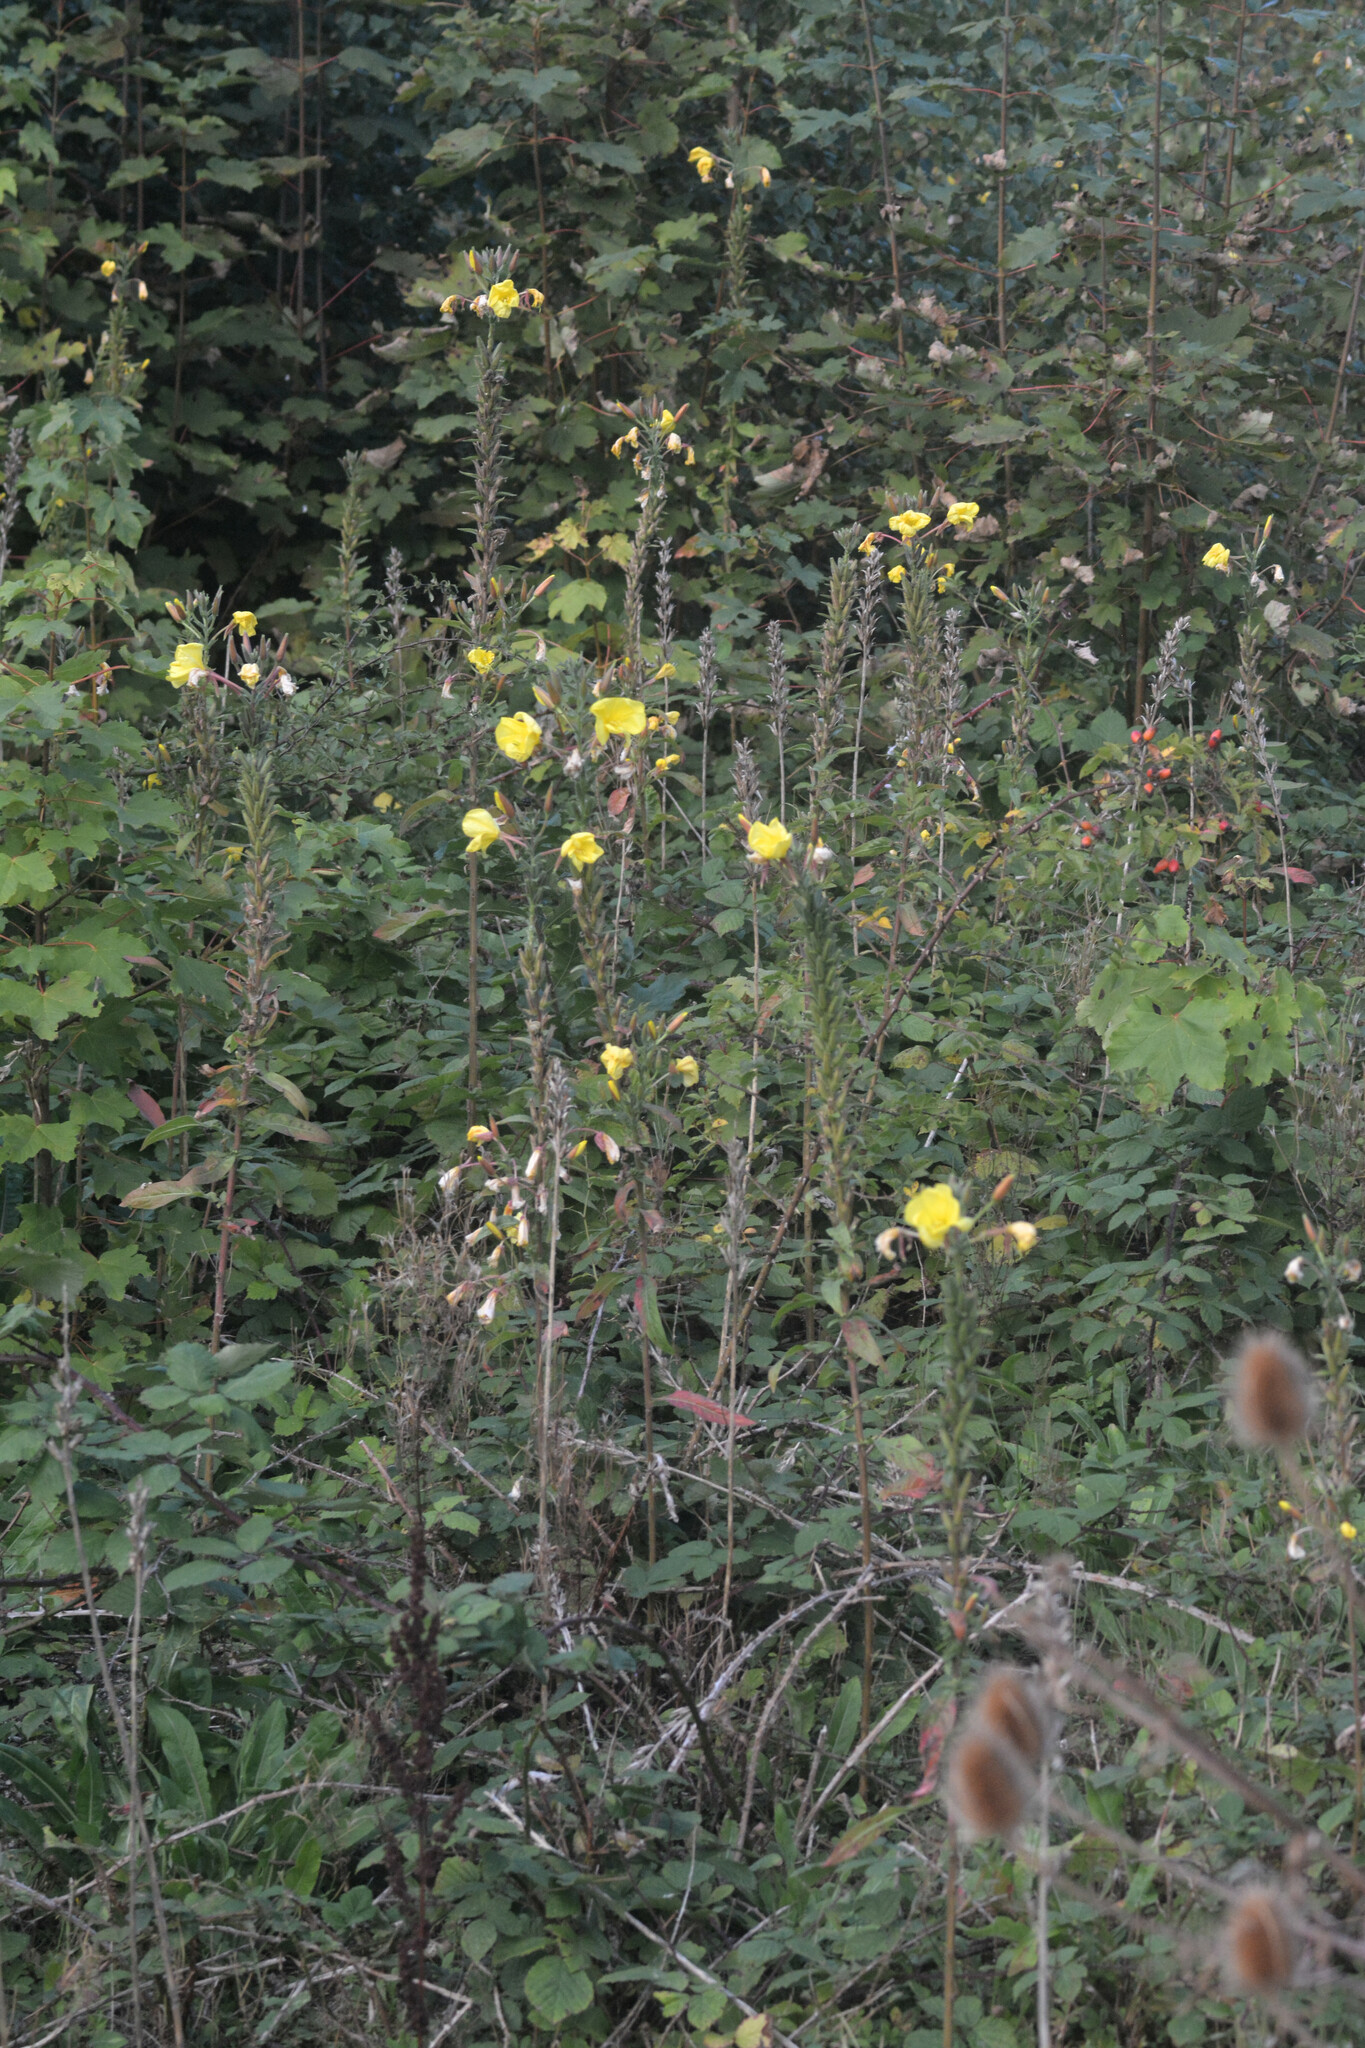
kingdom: Plantae
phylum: Tracheophyta
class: Magnoliopsida
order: Myrtales
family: Onagraceae
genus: Oenothera
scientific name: Oenothera glazioviana
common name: Large-flowered evening-primrose
